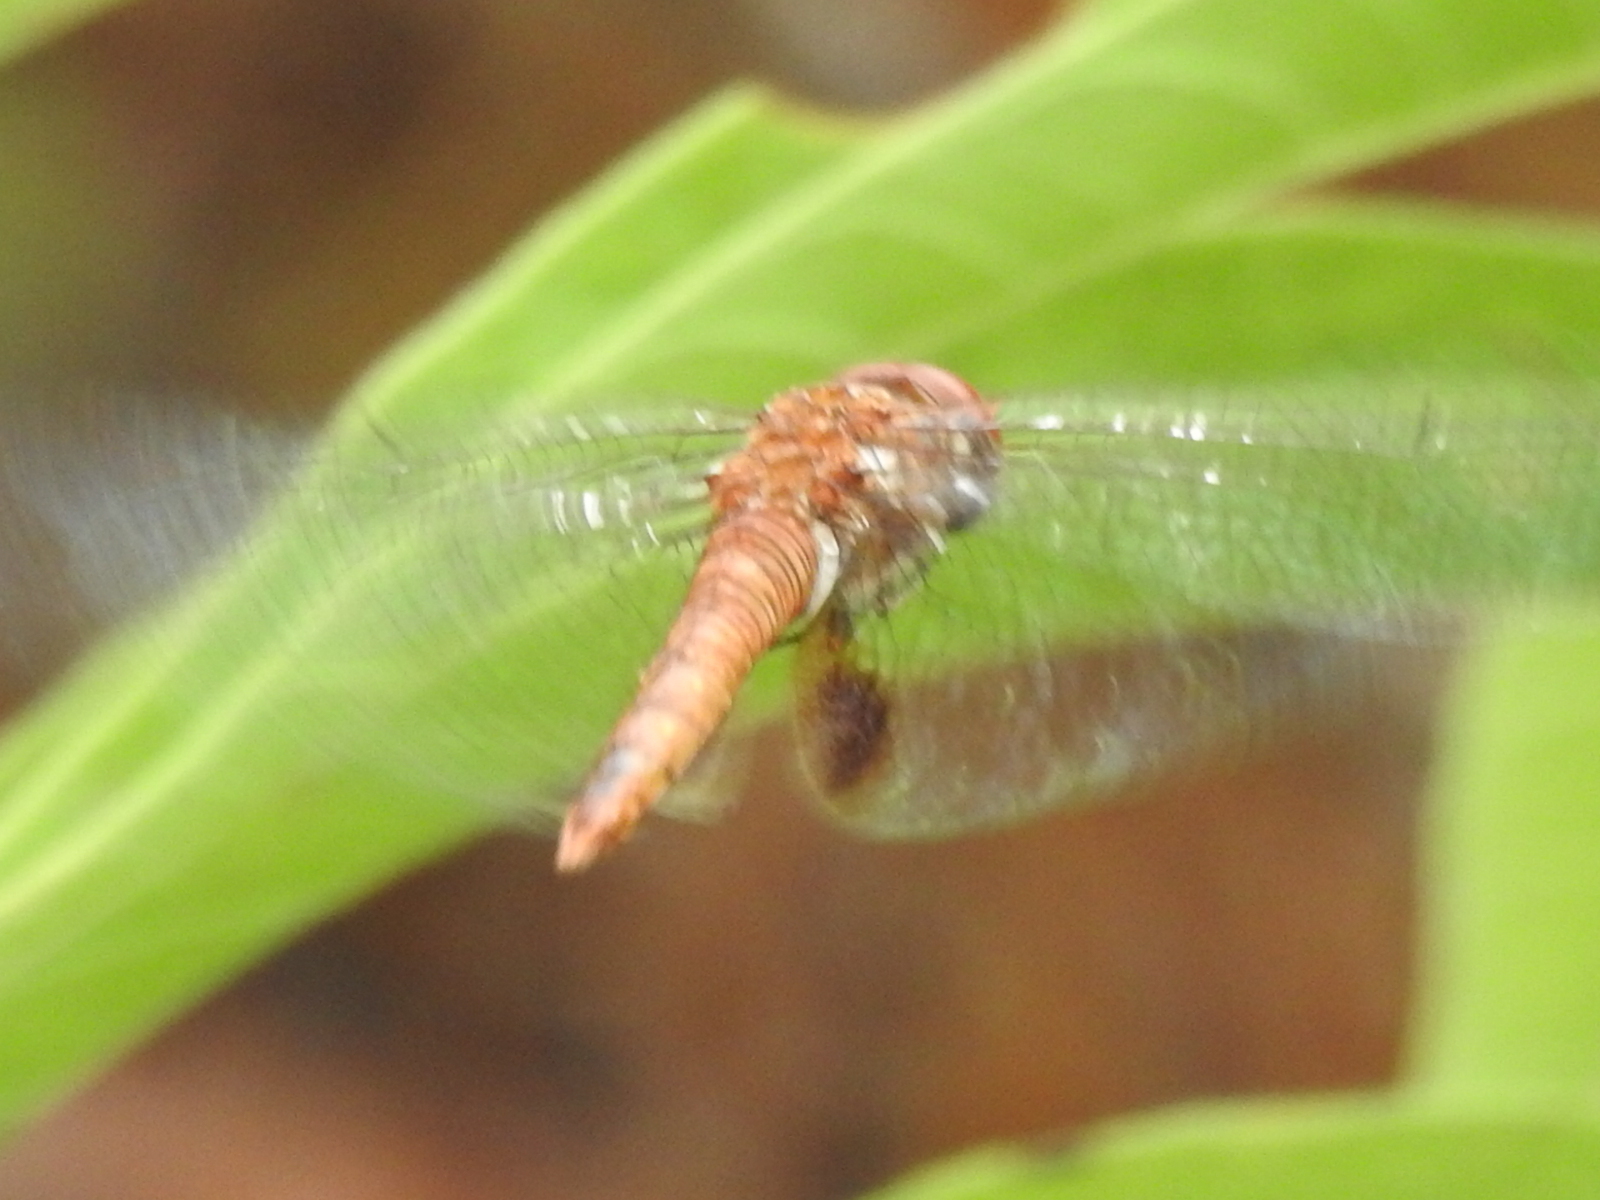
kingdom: Animalia
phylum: Arthropoda
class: Insecta
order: Odonata
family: Libellulidae
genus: Pantala
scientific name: Pantala hymenaea
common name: Spot-winged glider
